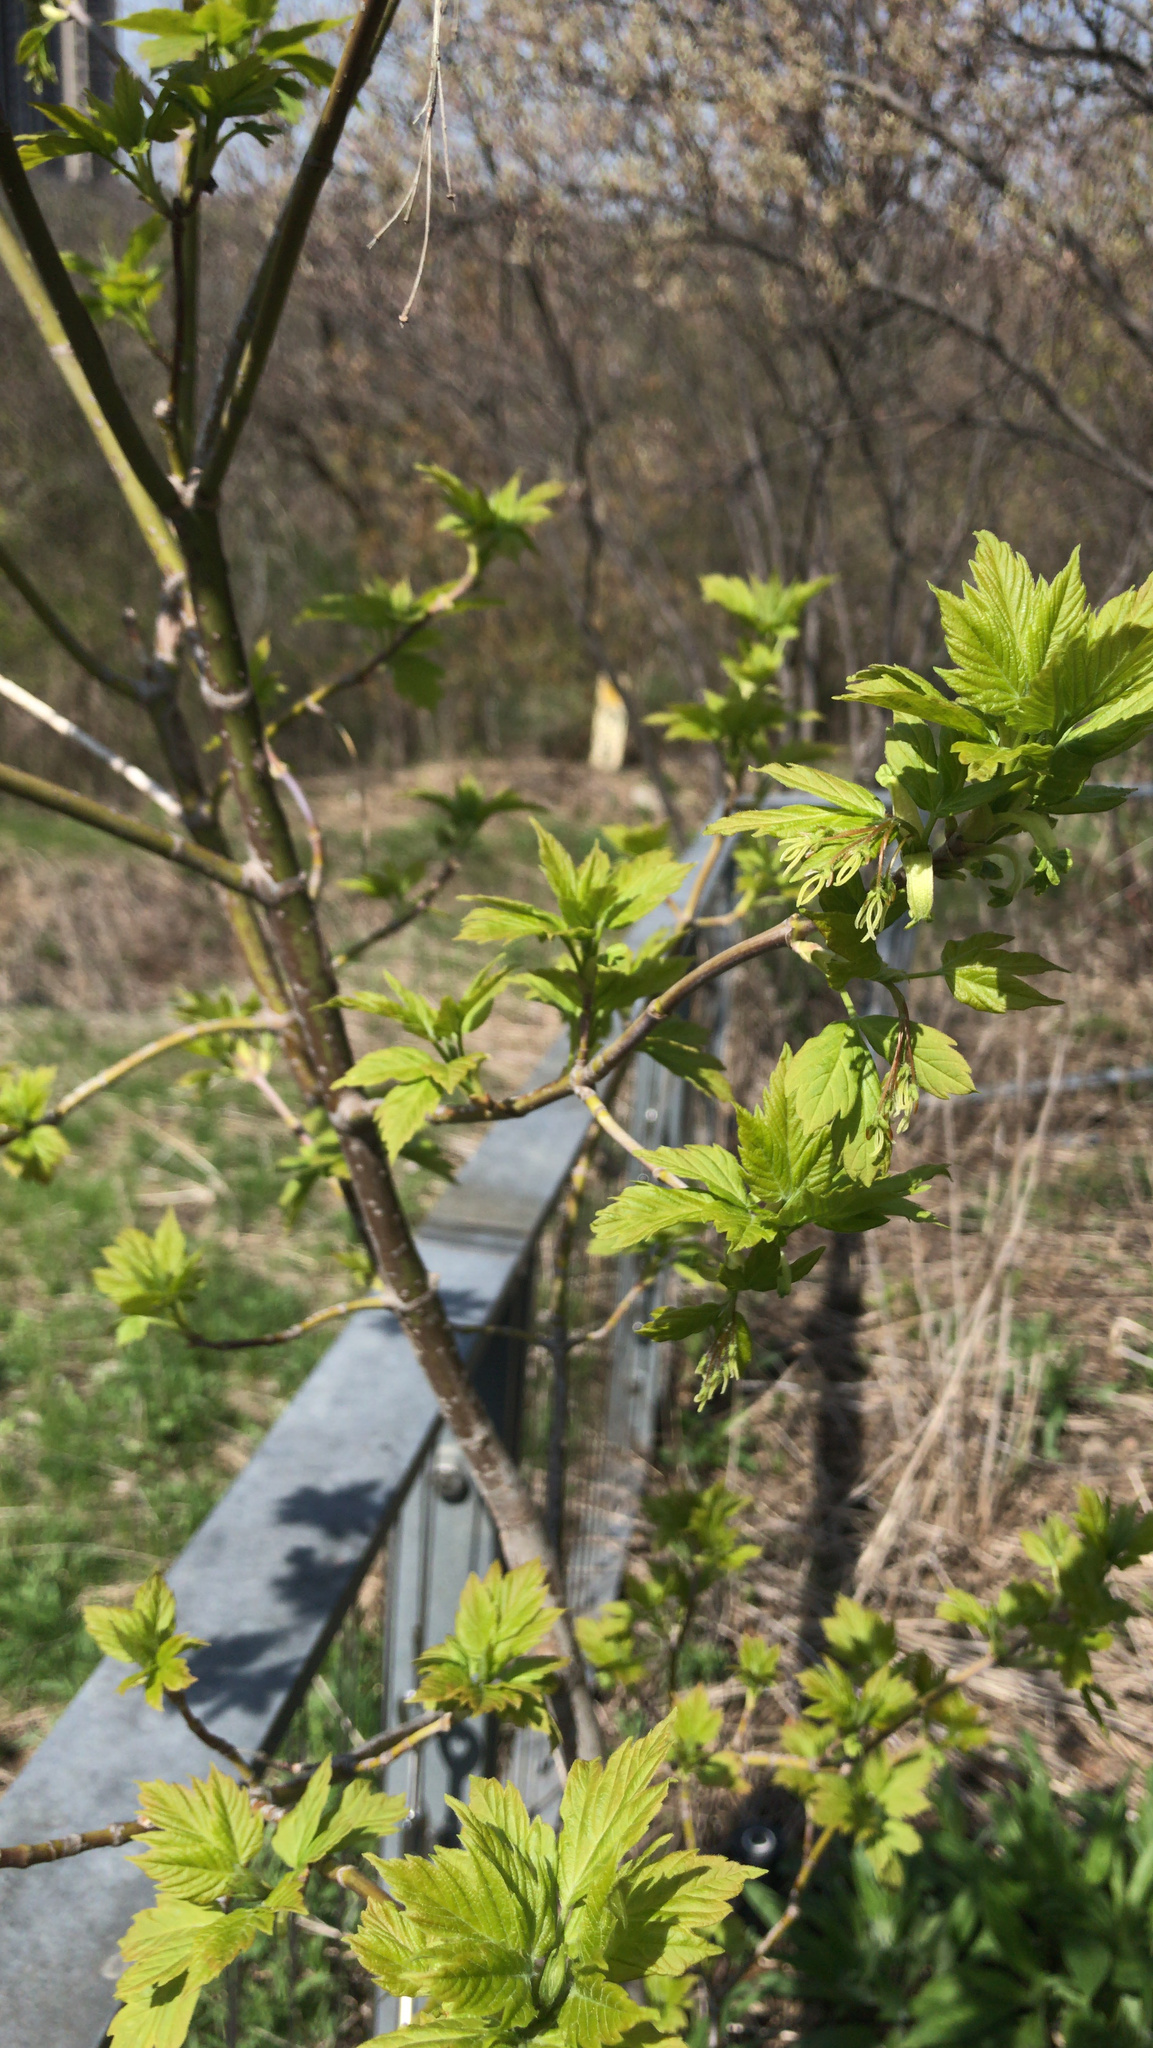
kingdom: Plantae
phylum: Tracheophyta
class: Magnoliopsida
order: Sapindales
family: Sapindaceae
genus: Acer
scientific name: Acer negundo
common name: Ashleaf maple
